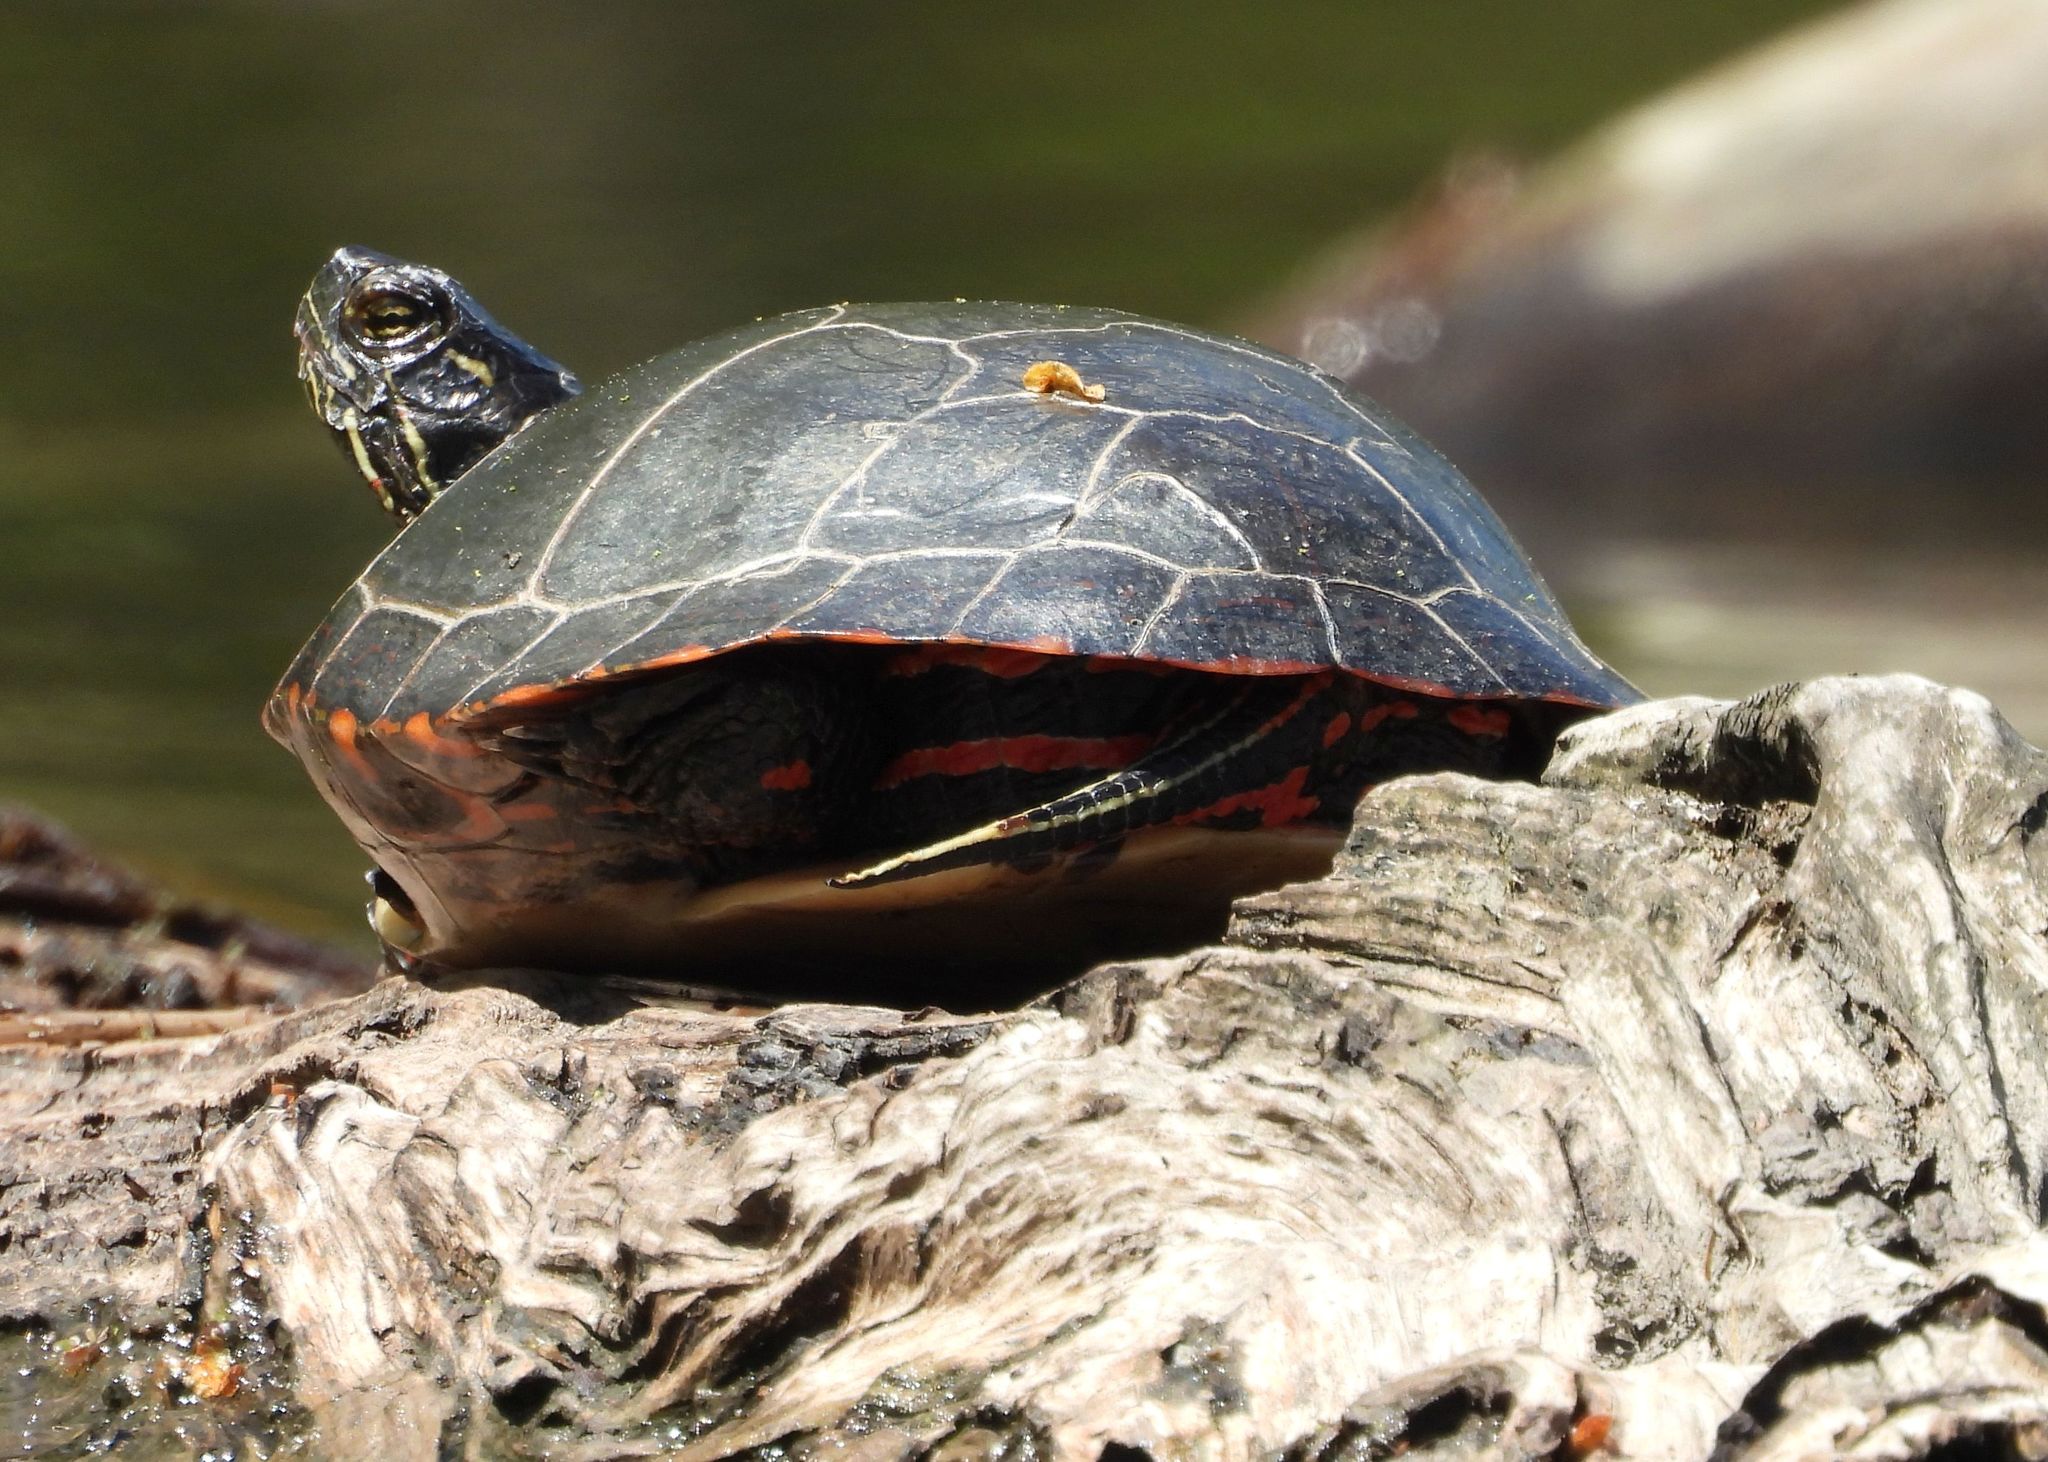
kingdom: Animalia
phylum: Chordata
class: Testudines
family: Emydidae
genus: Chrysemys
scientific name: Chrysemys picta
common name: Painted turtle
